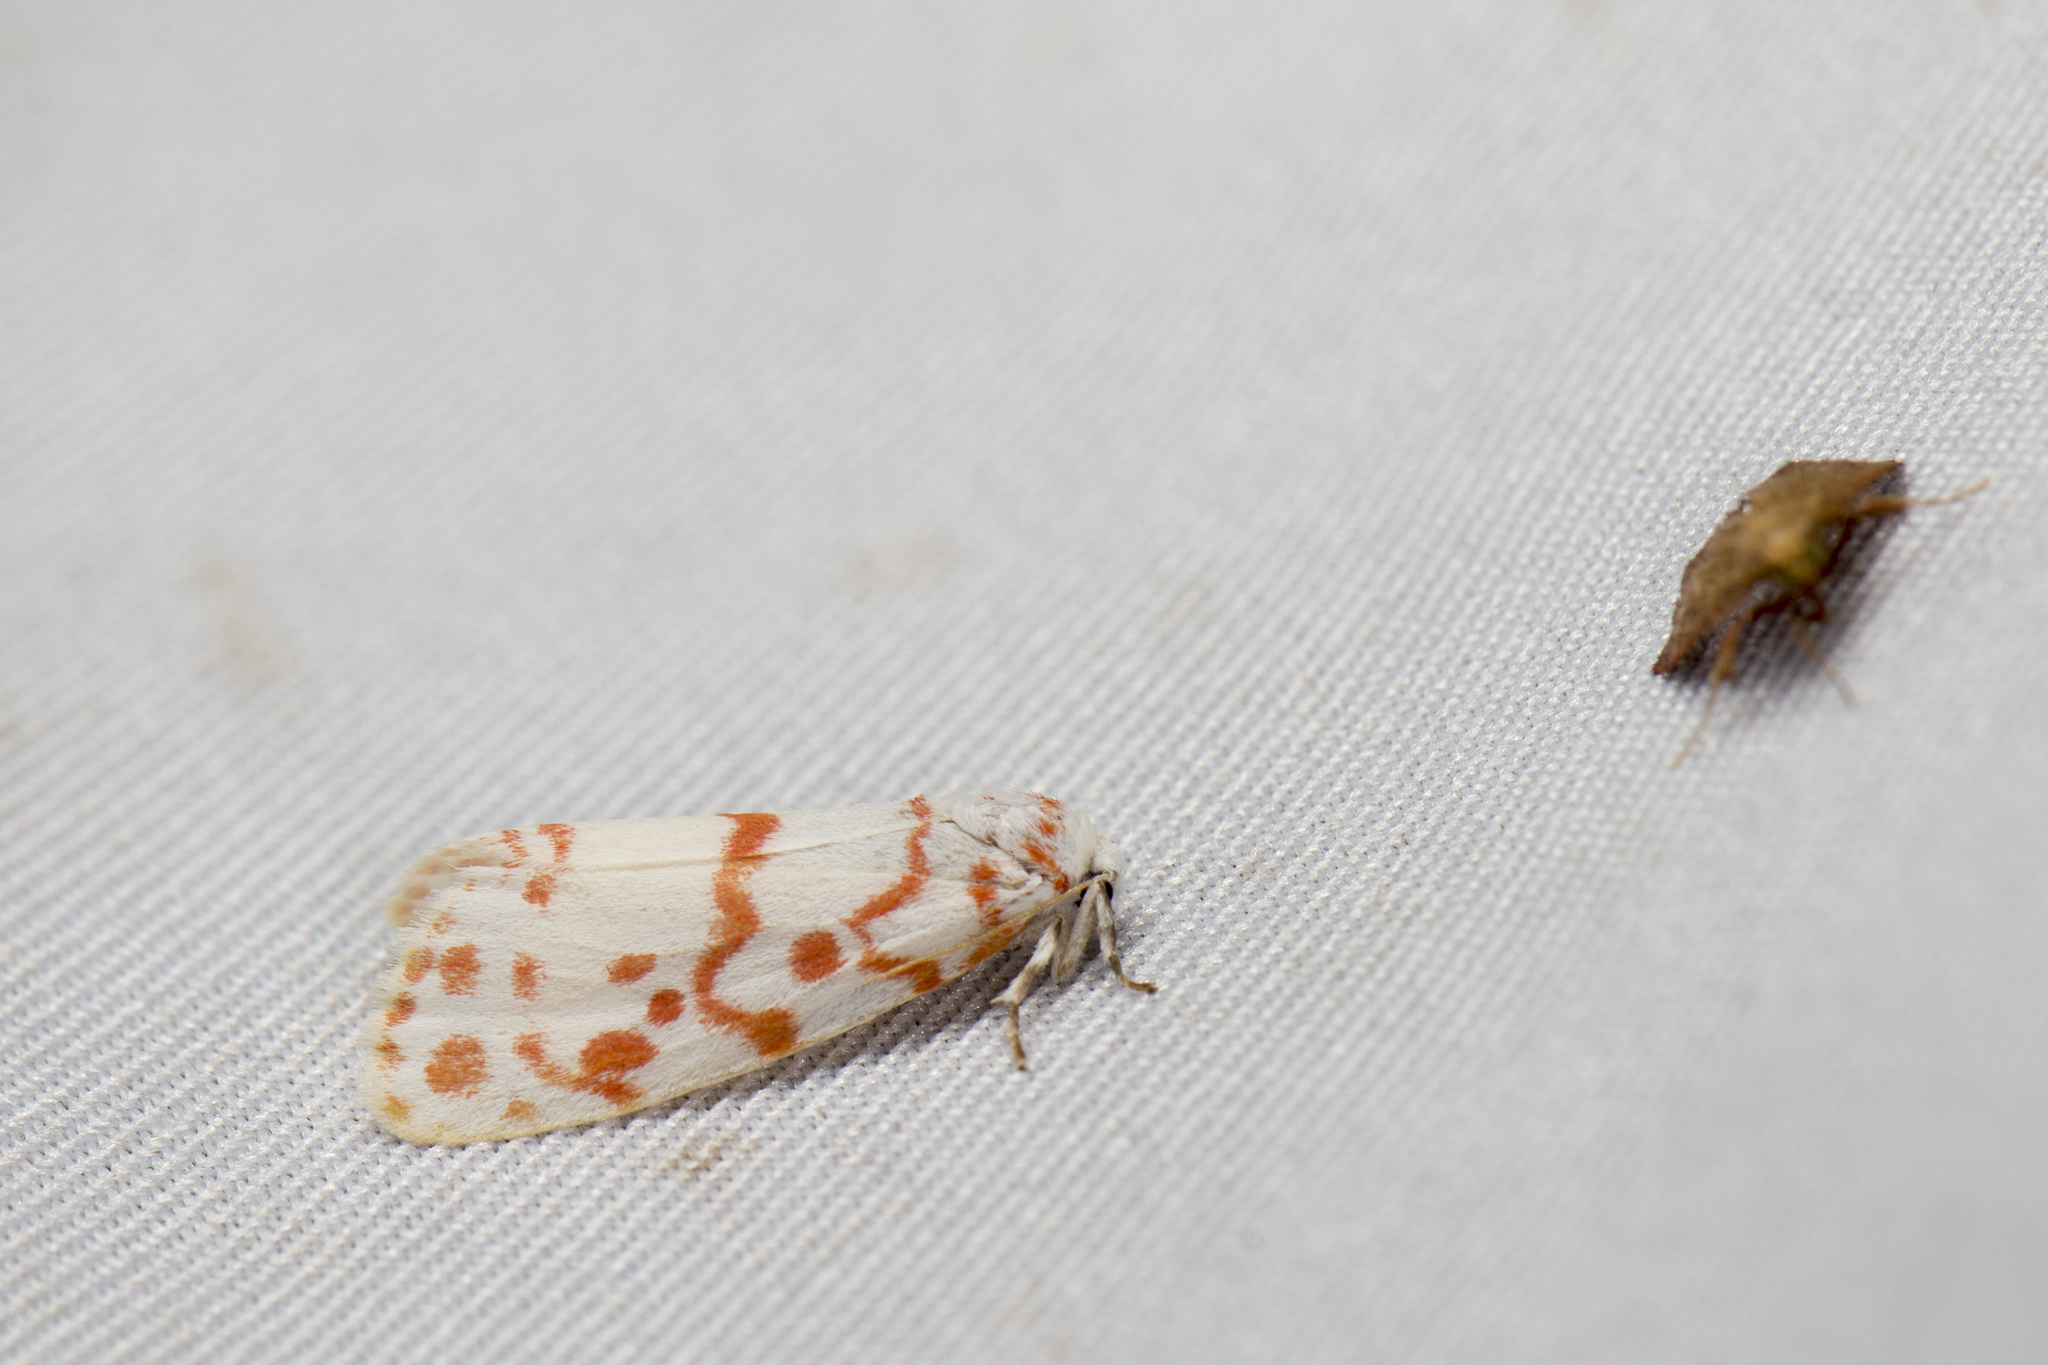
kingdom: Animalia
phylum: Arthropoda
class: Insecta
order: Lepidoptera
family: Erebidae
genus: Nephelomilta
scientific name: Nephelomilta karenkonis
